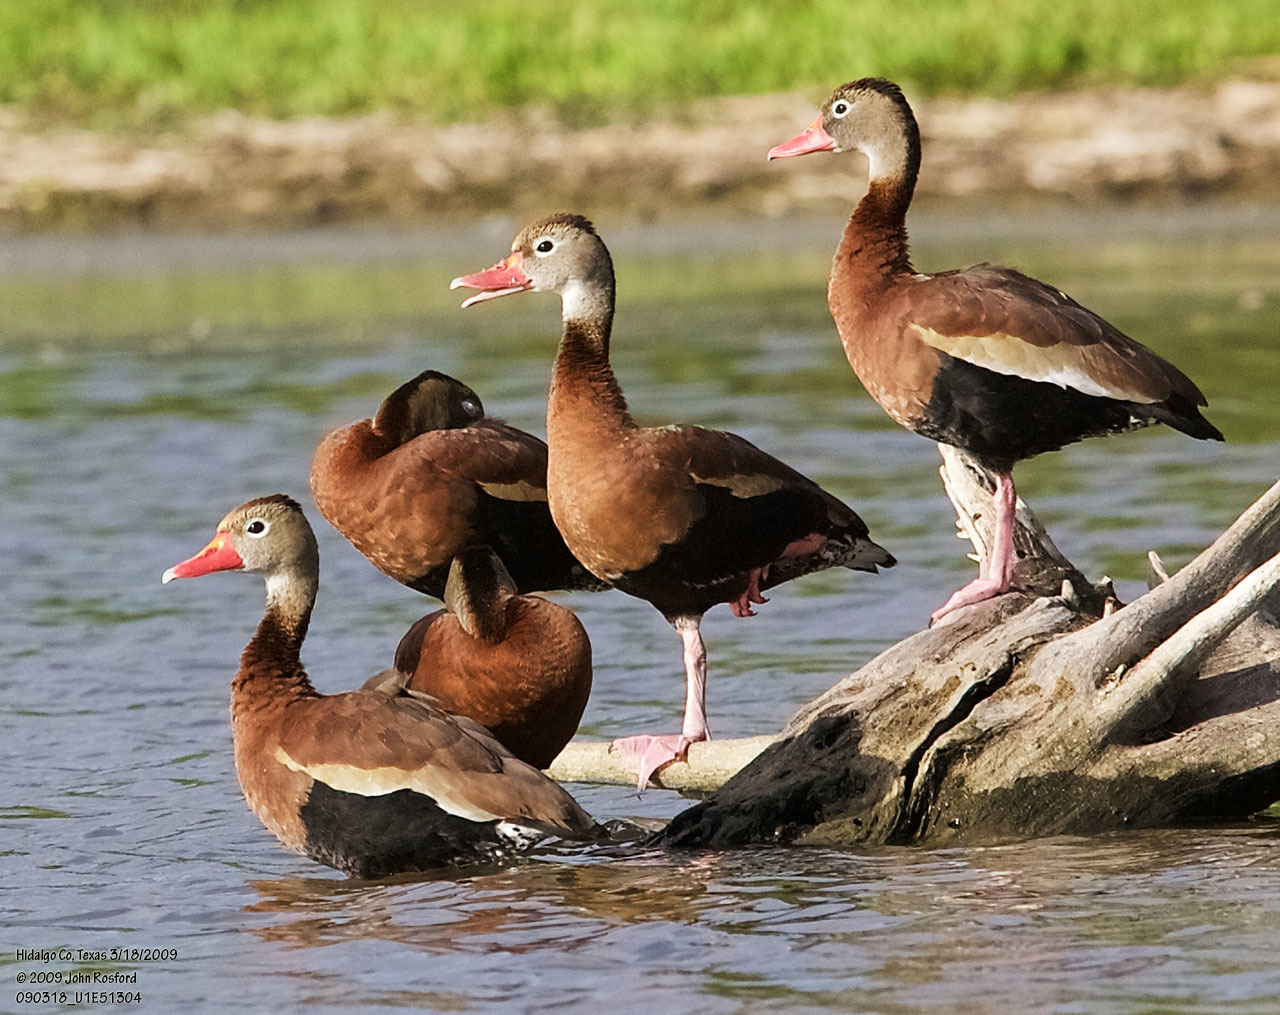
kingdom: Animalia
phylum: Chordata
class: Aves
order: Anseriformes
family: Anatidae
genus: Dendrocygna
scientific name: Dendrocygna autumnalis
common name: Black-bellied whistling duck
